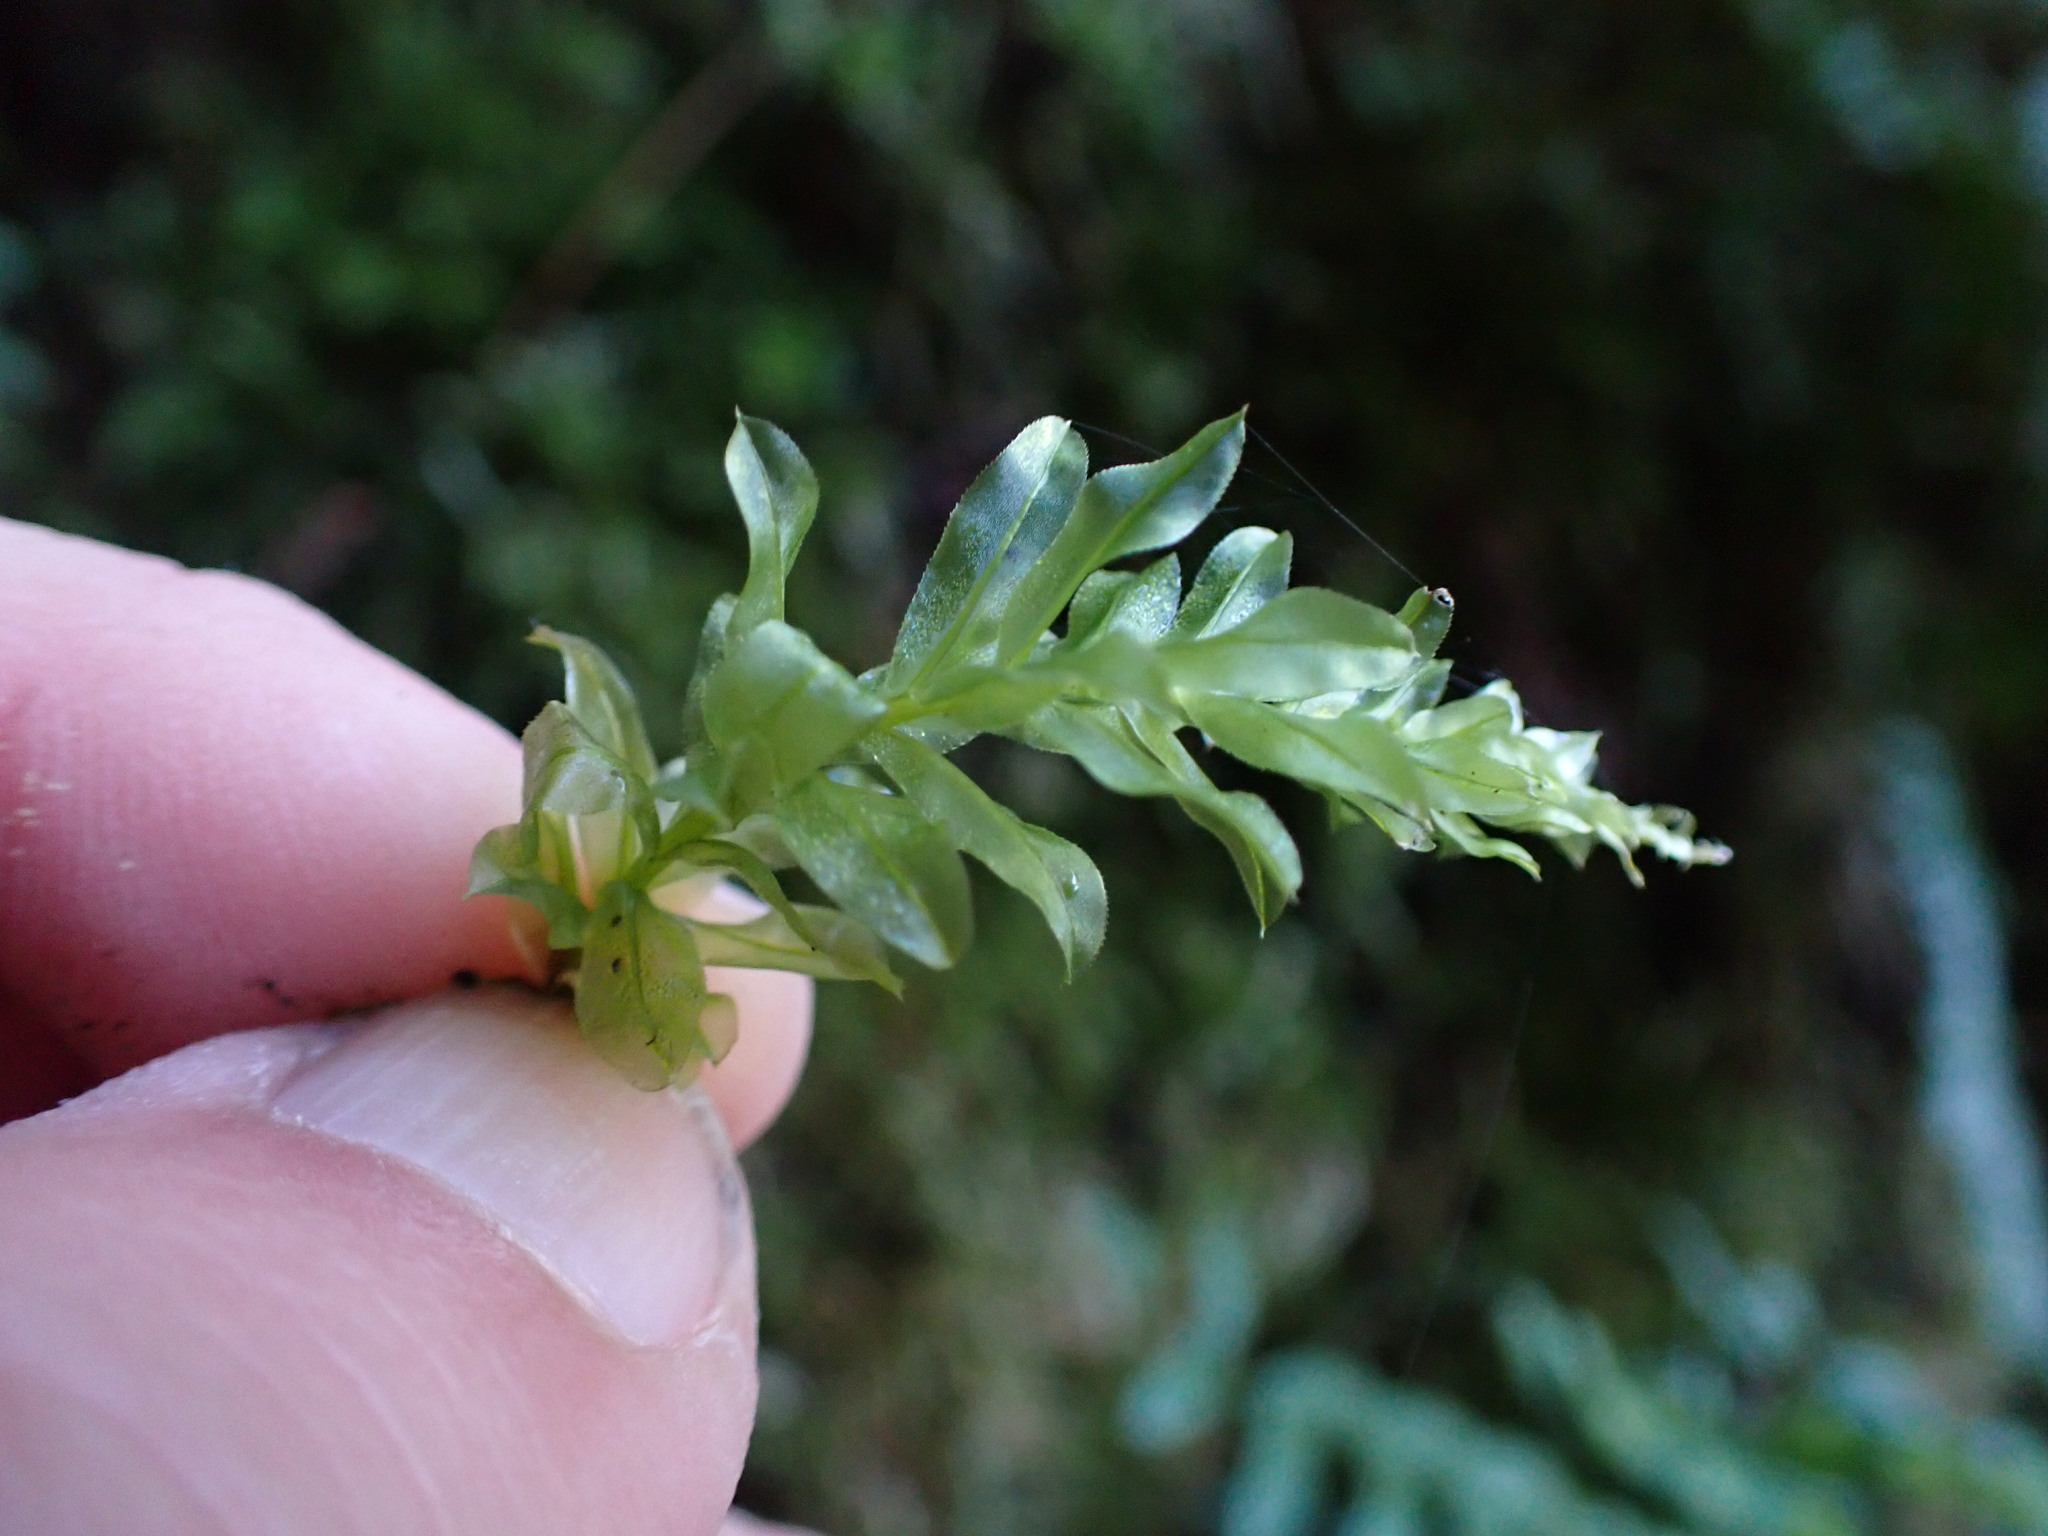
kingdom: Plantae
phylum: Bryophyta
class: Bryopsida
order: Bryales
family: Mniaceae
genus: Plagiomnium
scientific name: Plagiomnium insigne
